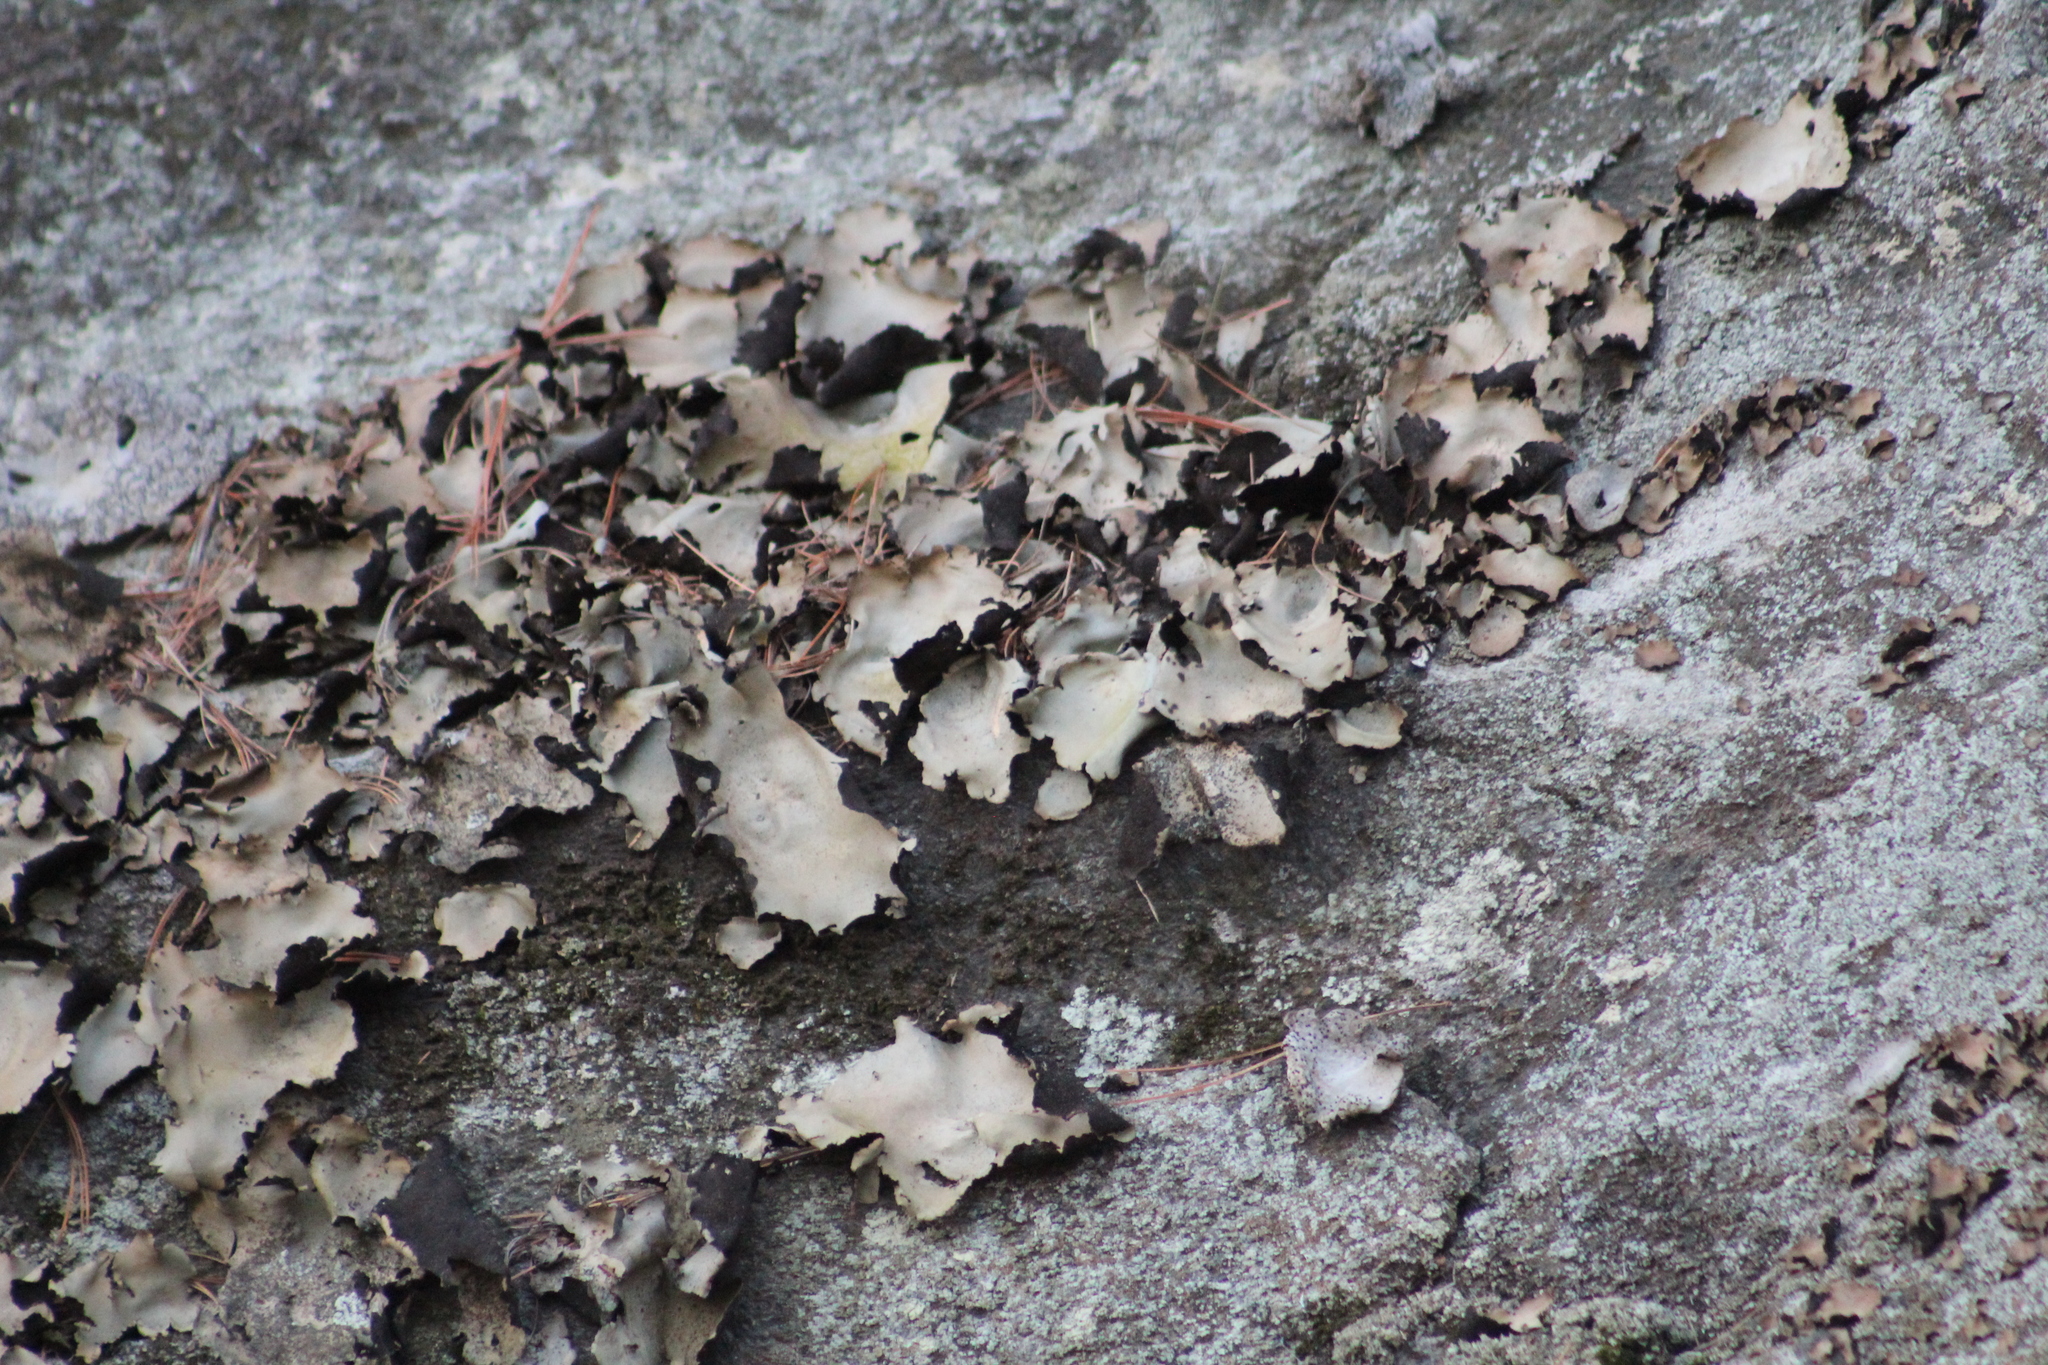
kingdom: Fungi
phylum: Ascomycota
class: Lecanoromycetes
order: Umbilicariales
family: Umbilicariaceae
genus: Umbilicaria
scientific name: Umbilicaria mammulata
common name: Smooth rock tripe
